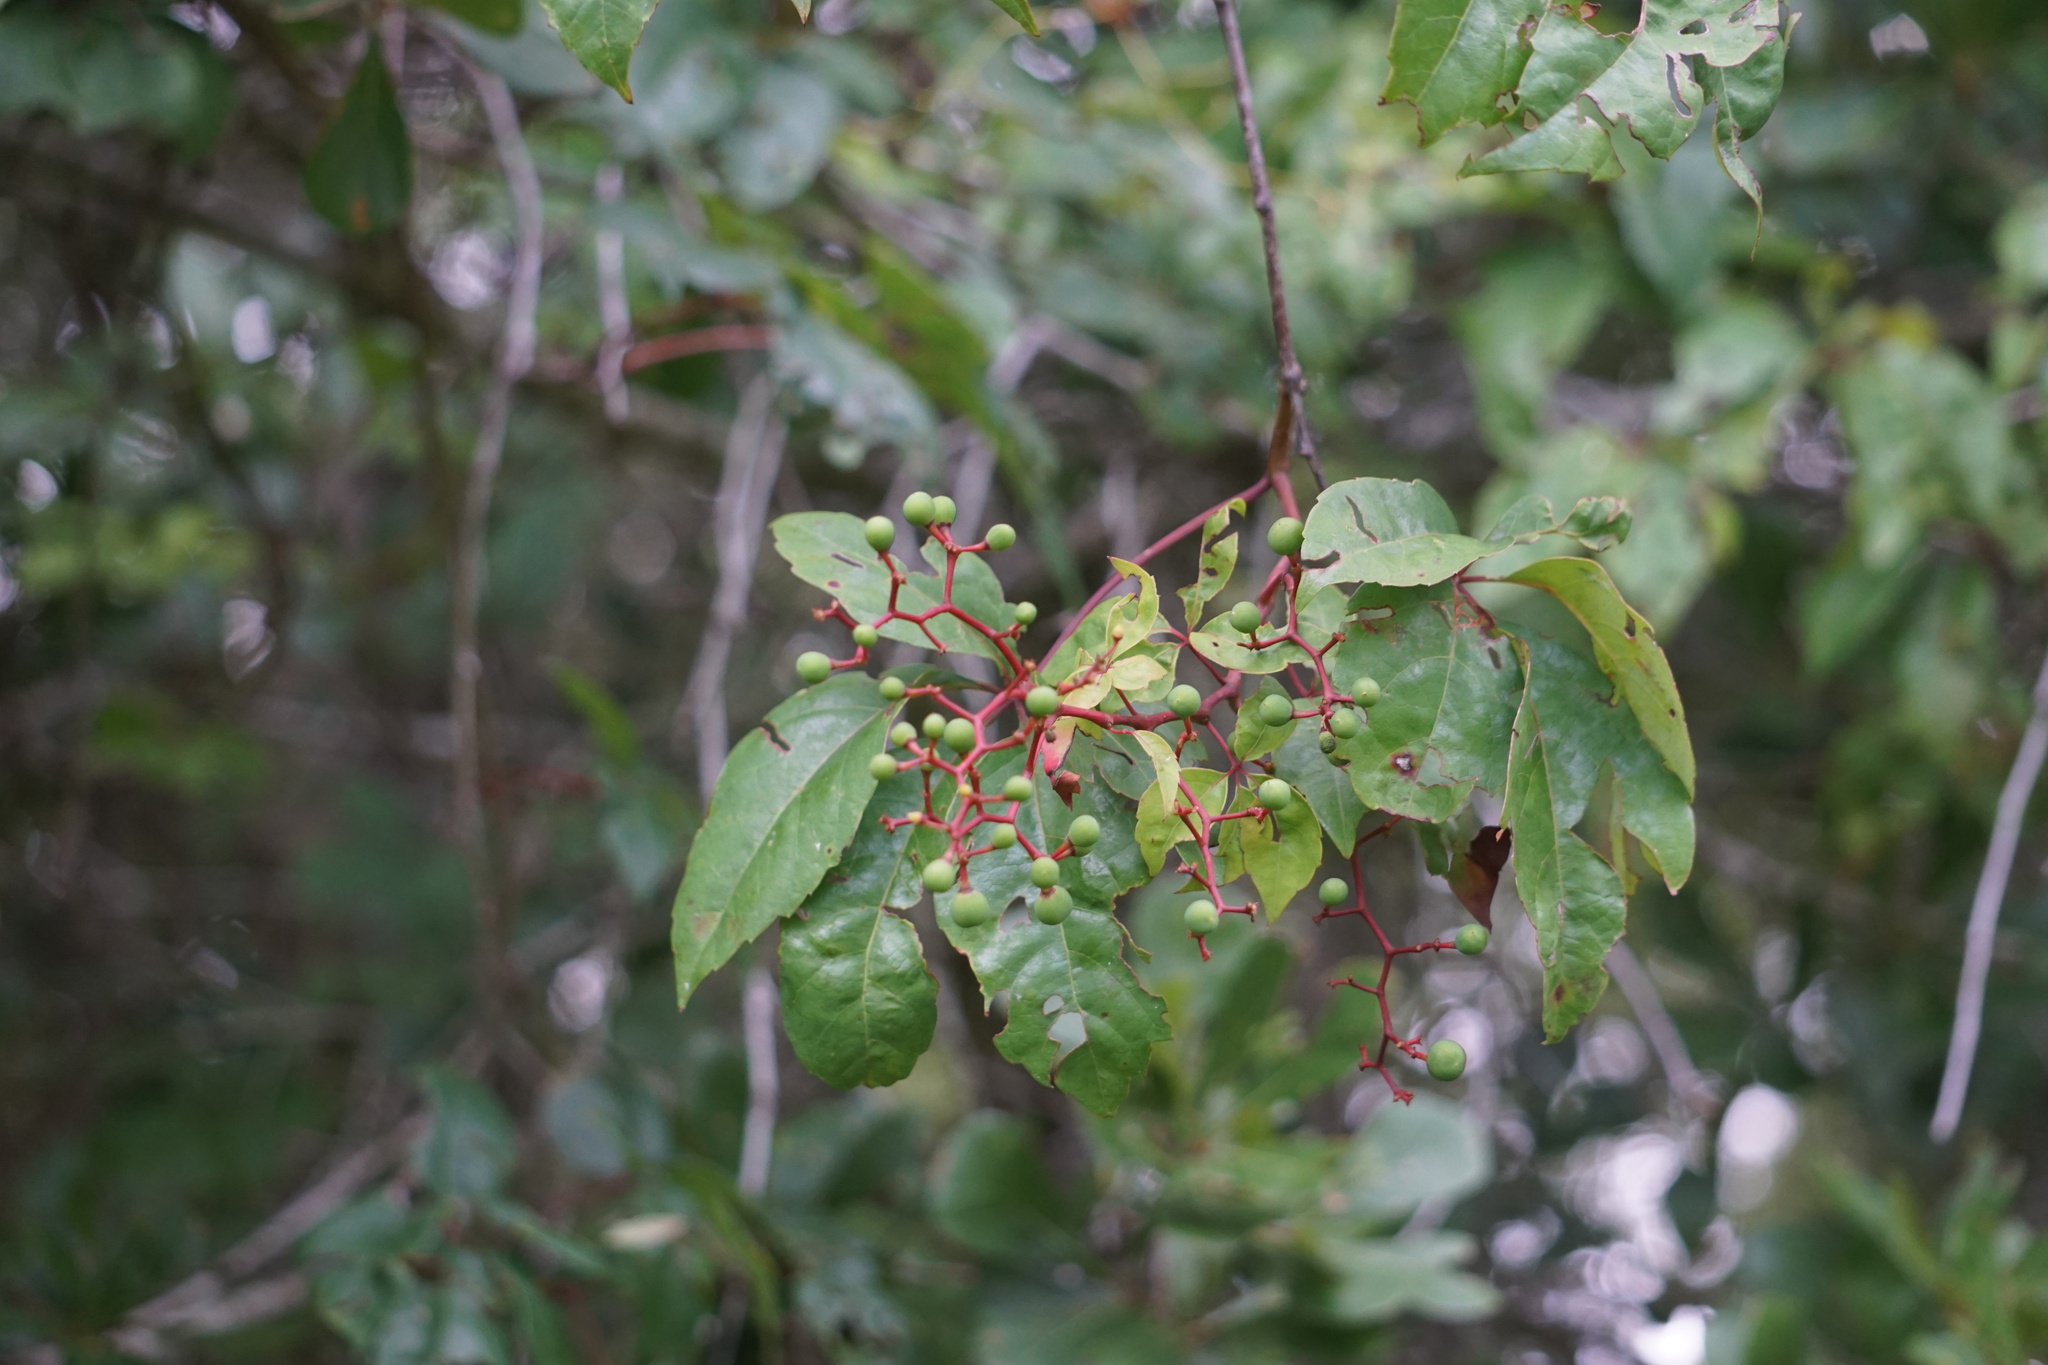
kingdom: Plantae
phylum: Tracheophyta
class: Magnoliopsida
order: Vitales
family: Vitaceae
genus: Parthenocissus
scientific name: Parthenocissus quinquefolia
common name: Virginia-creeper
